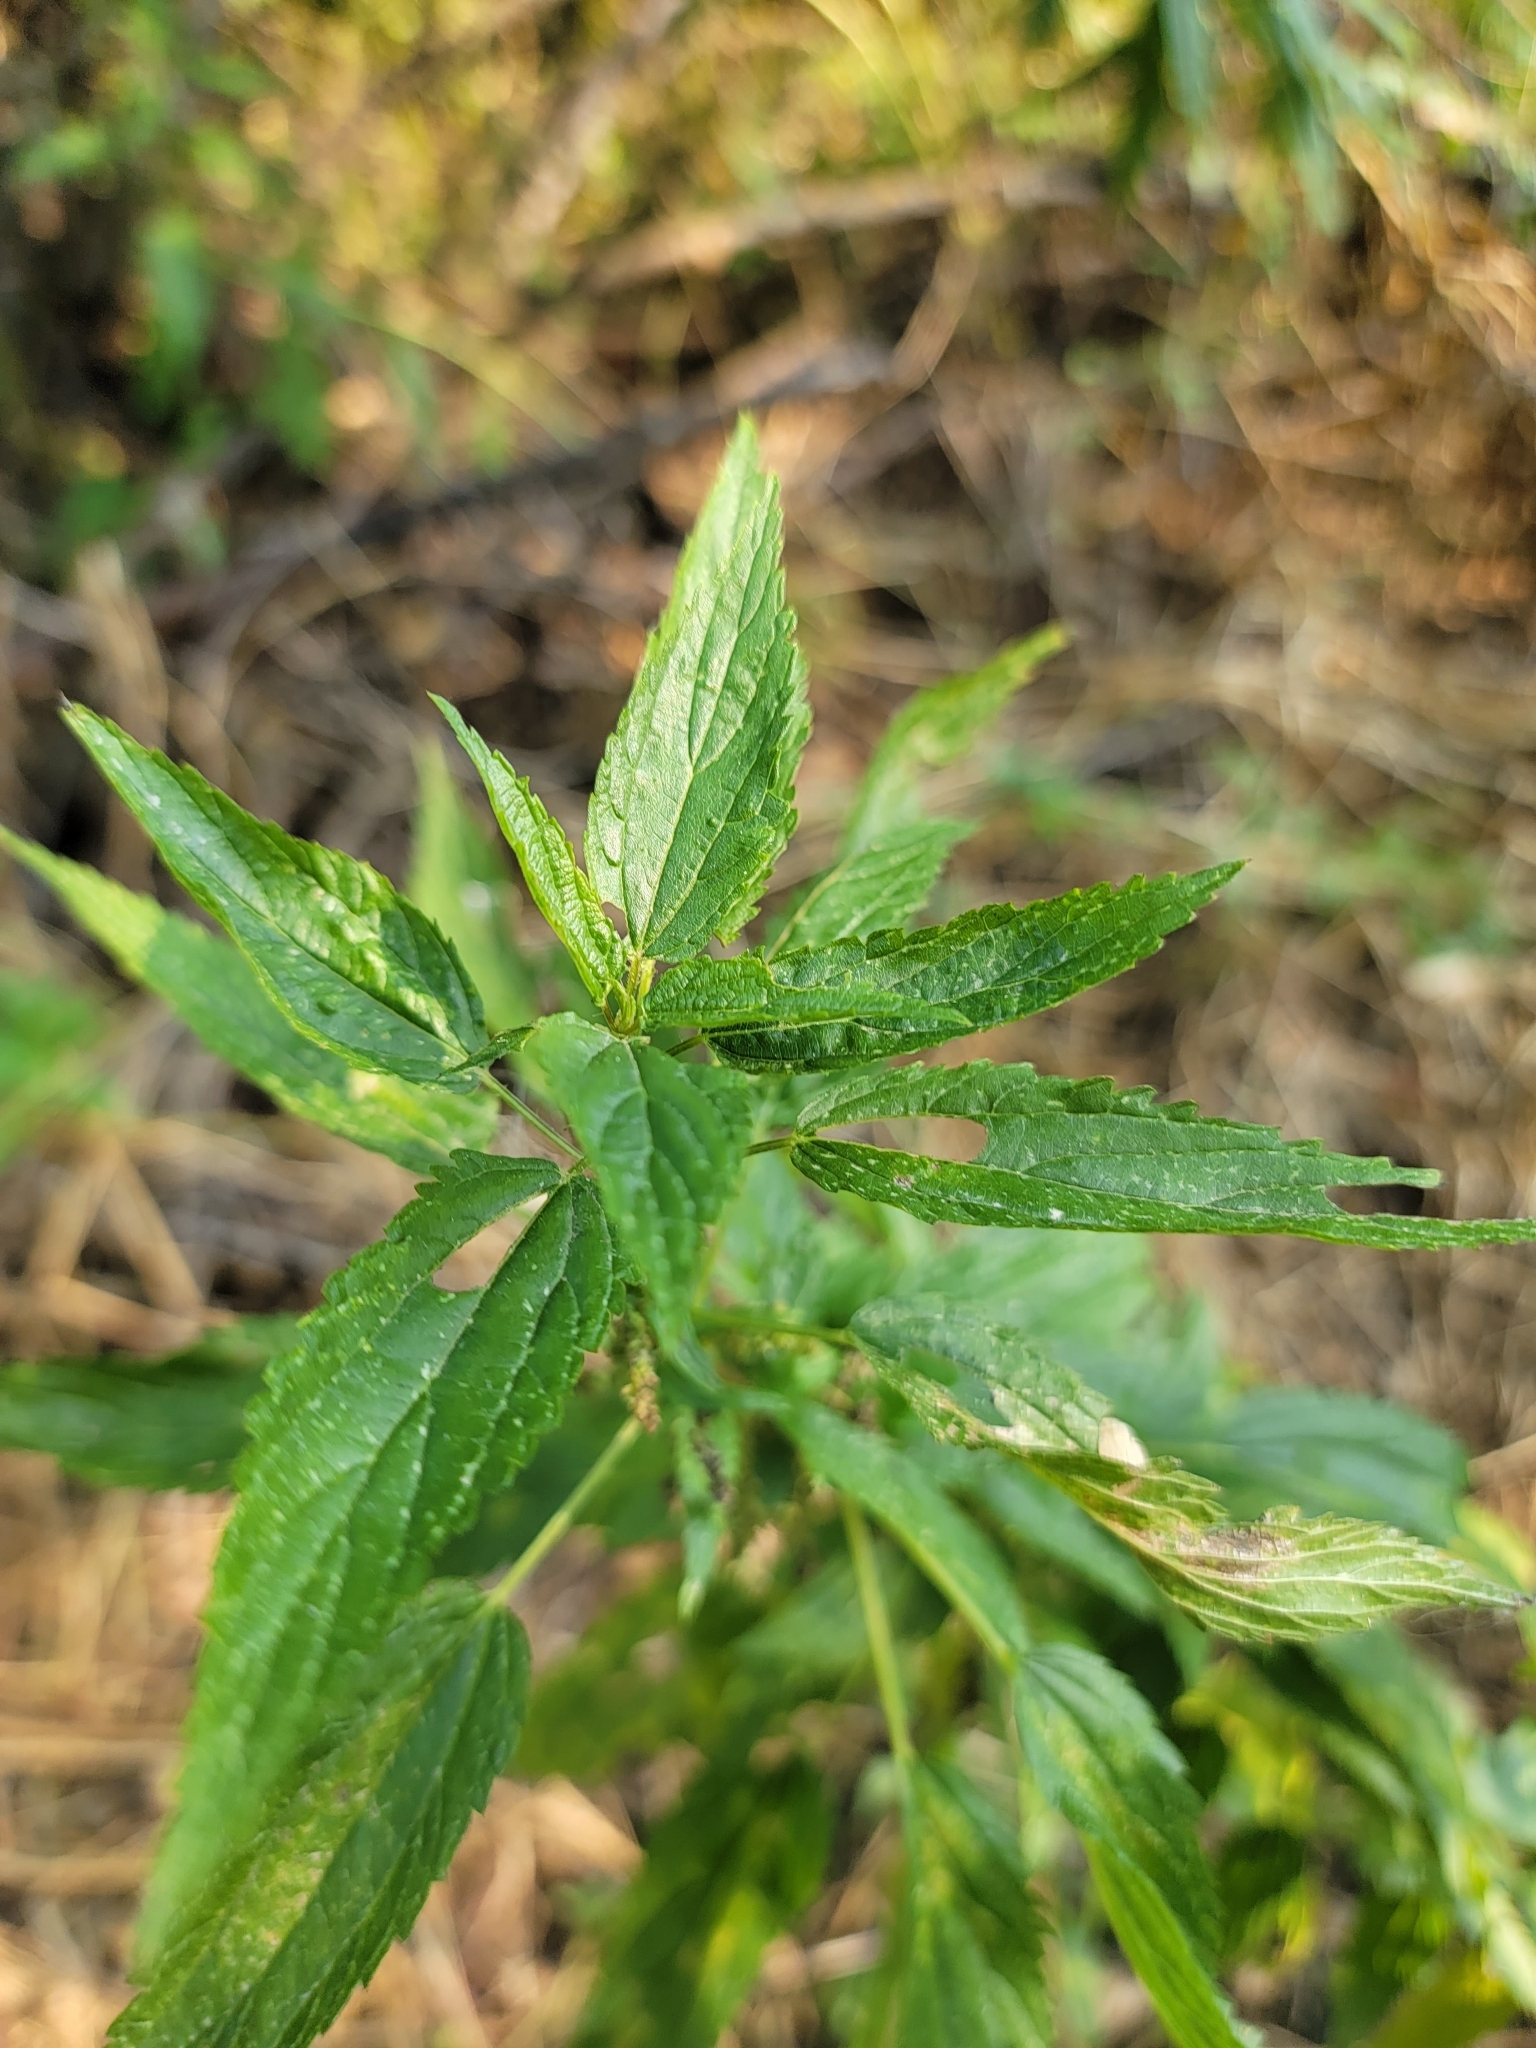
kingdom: Plantae
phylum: Tracheophyta
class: Magnoliopsida
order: Rosales
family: Urticaceae
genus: Urtica
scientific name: Urtica gracilis
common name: Slender stinging nettle
